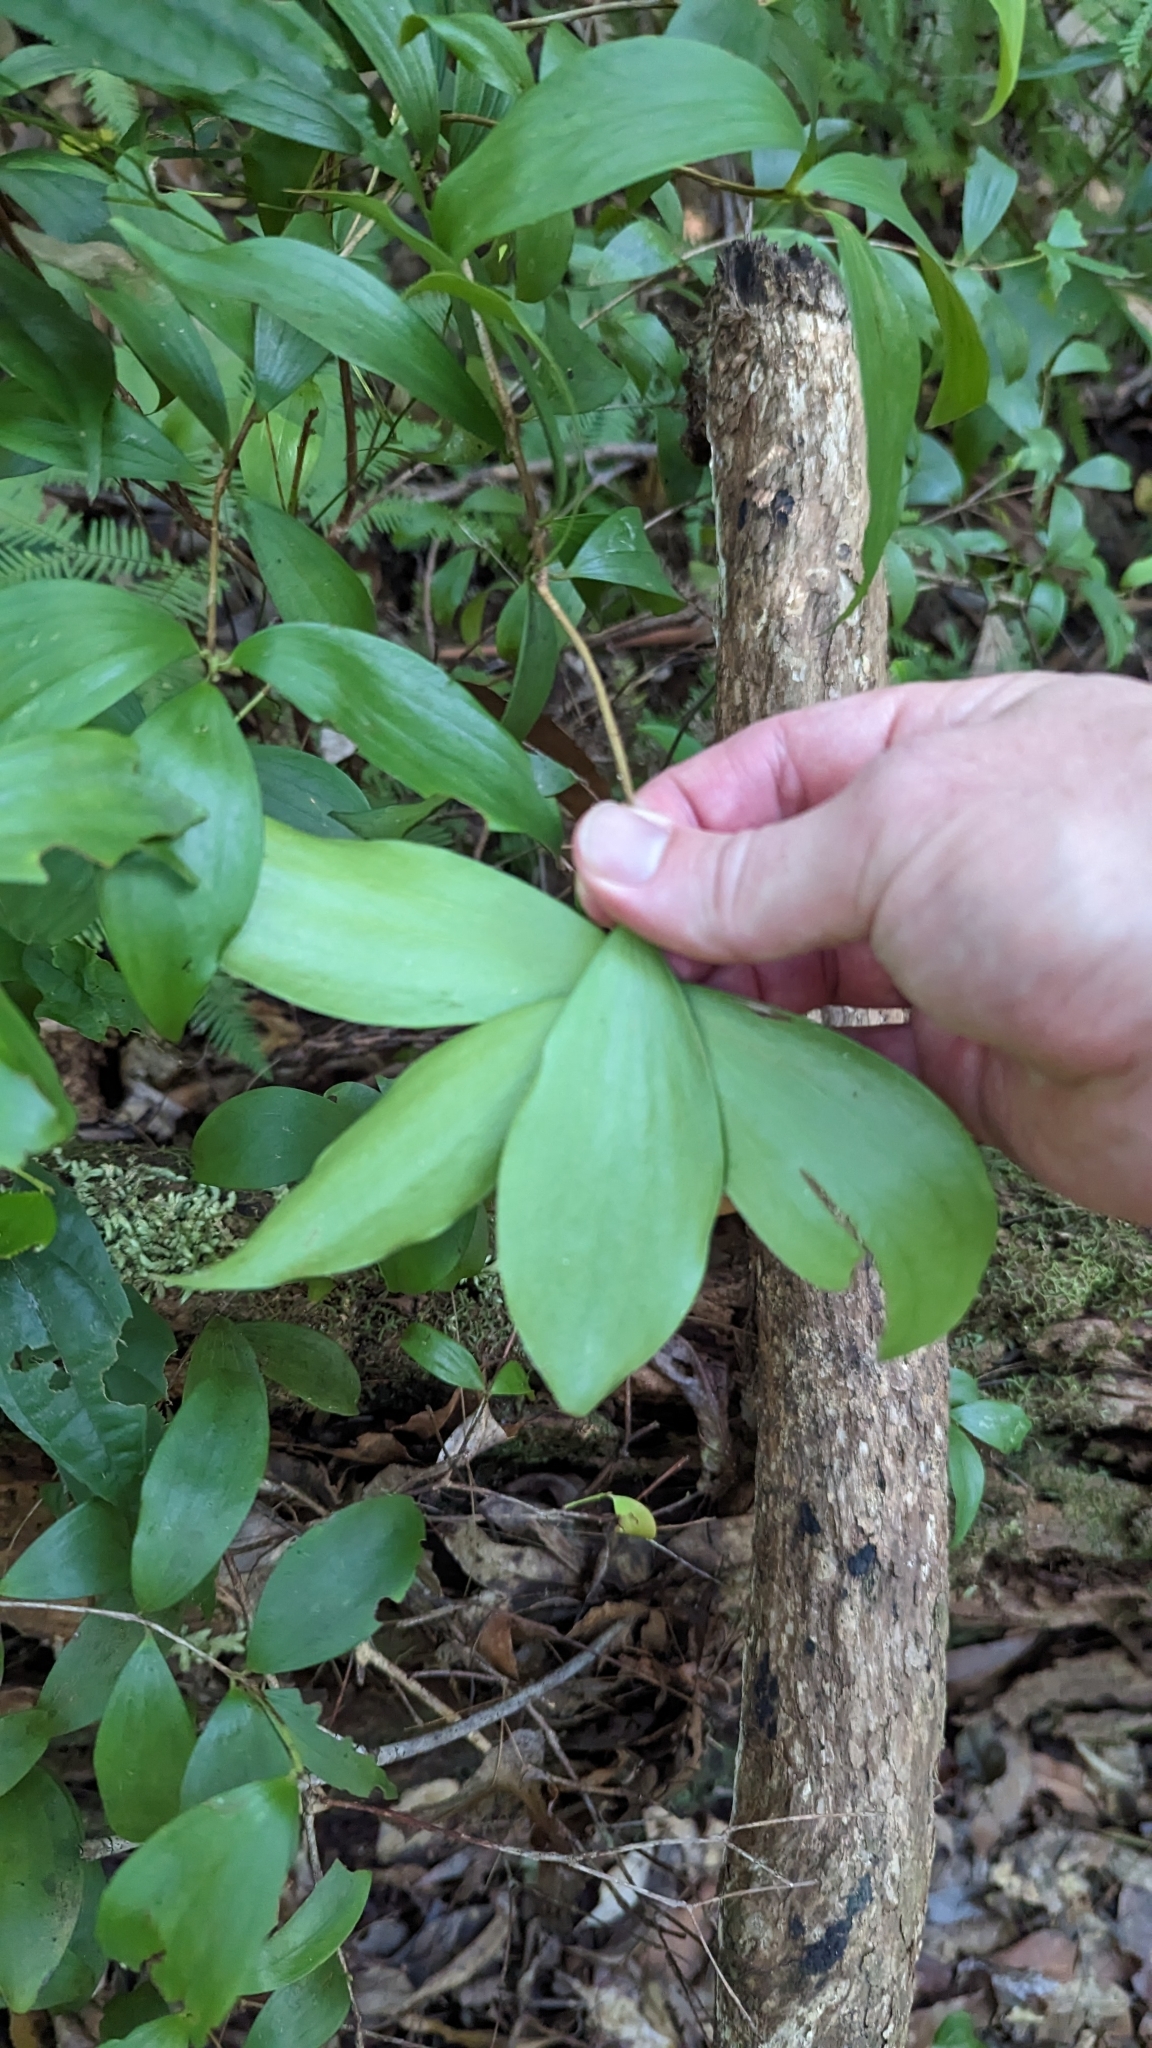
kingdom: Plantae
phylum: Tracheophyta
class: Magnoliopsida
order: Ericales
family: Ericaceae
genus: Trochocarpa
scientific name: Trochocarpa laurina
